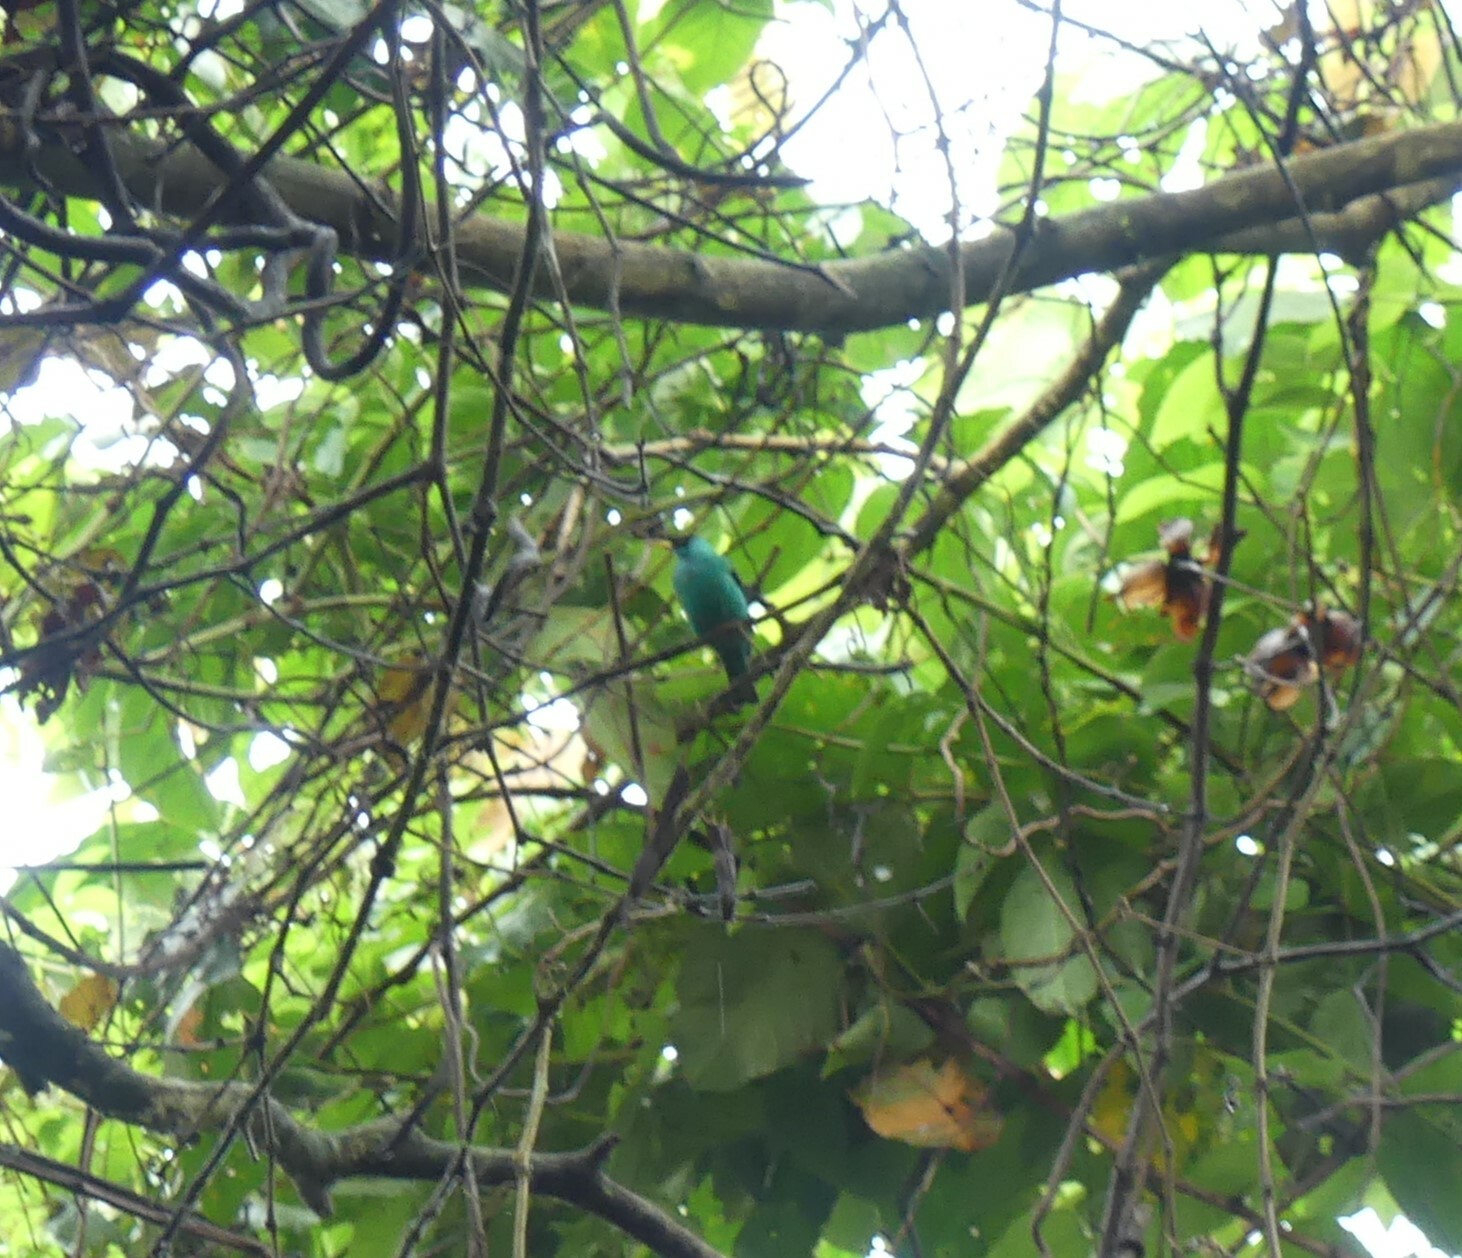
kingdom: Animalia
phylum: Chordata
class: Aves
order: Passeriformes
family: Thraupidae
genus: Chlorophanes
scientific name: Chlorophanes spiza
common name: Green honeycreeper
